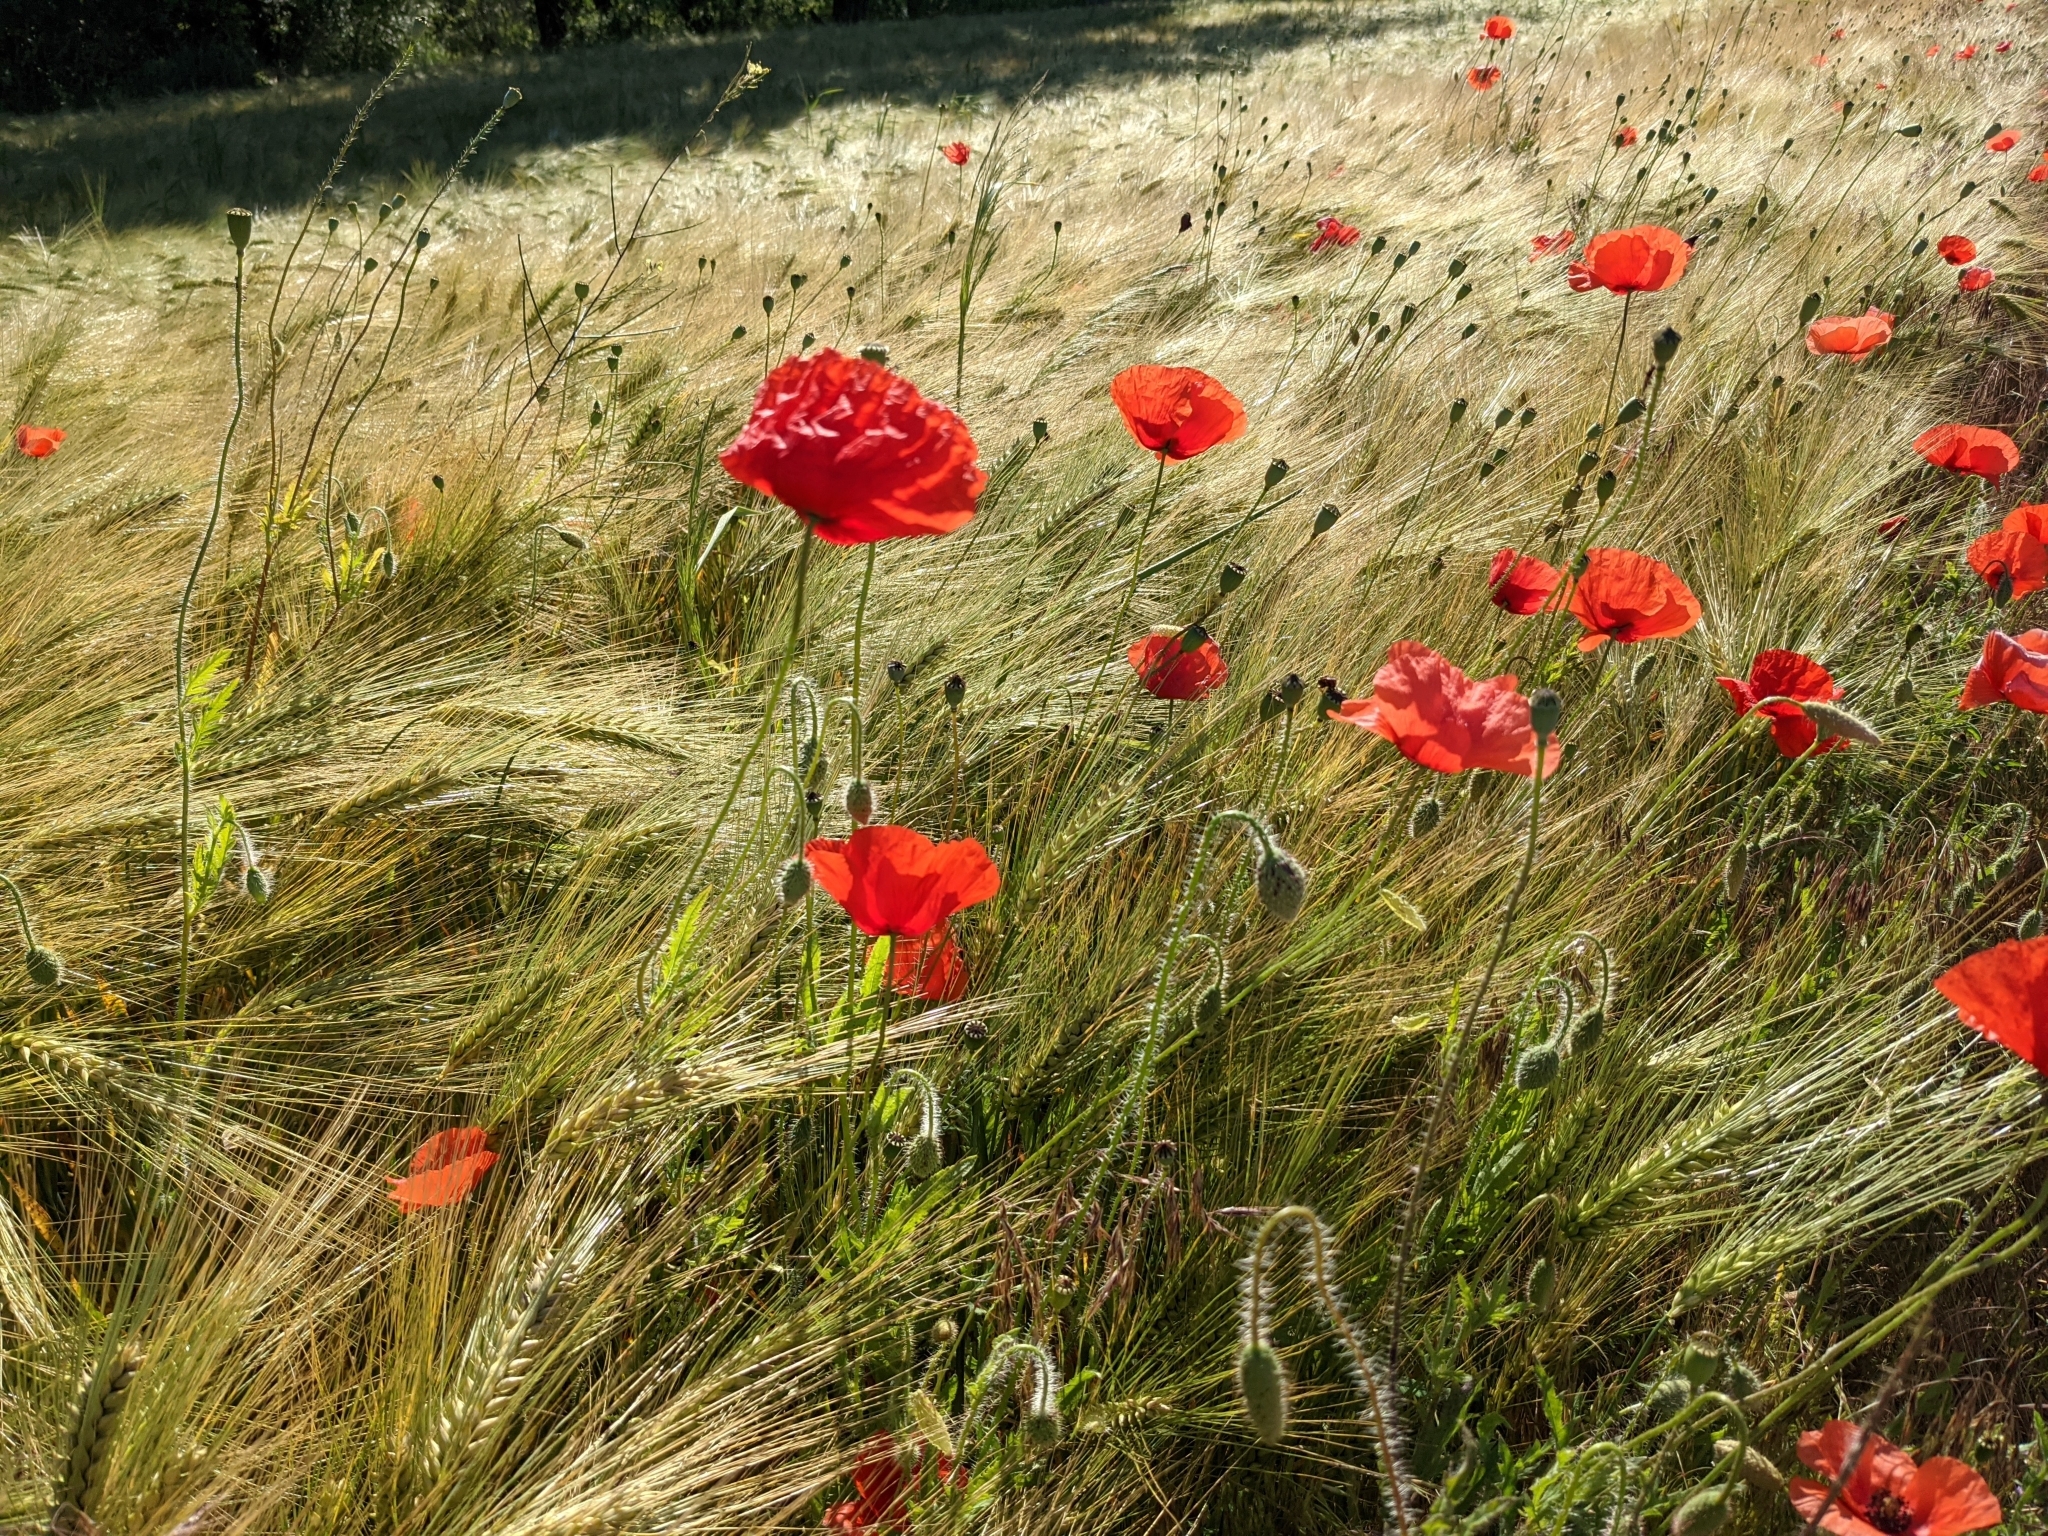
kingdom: Plantae
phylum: Tracheophyta
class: Magnoliopsida
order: Ranunculales
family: Papaveraceae
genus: Papaver
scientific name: Papaver rhoeas
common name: Corn poppy
